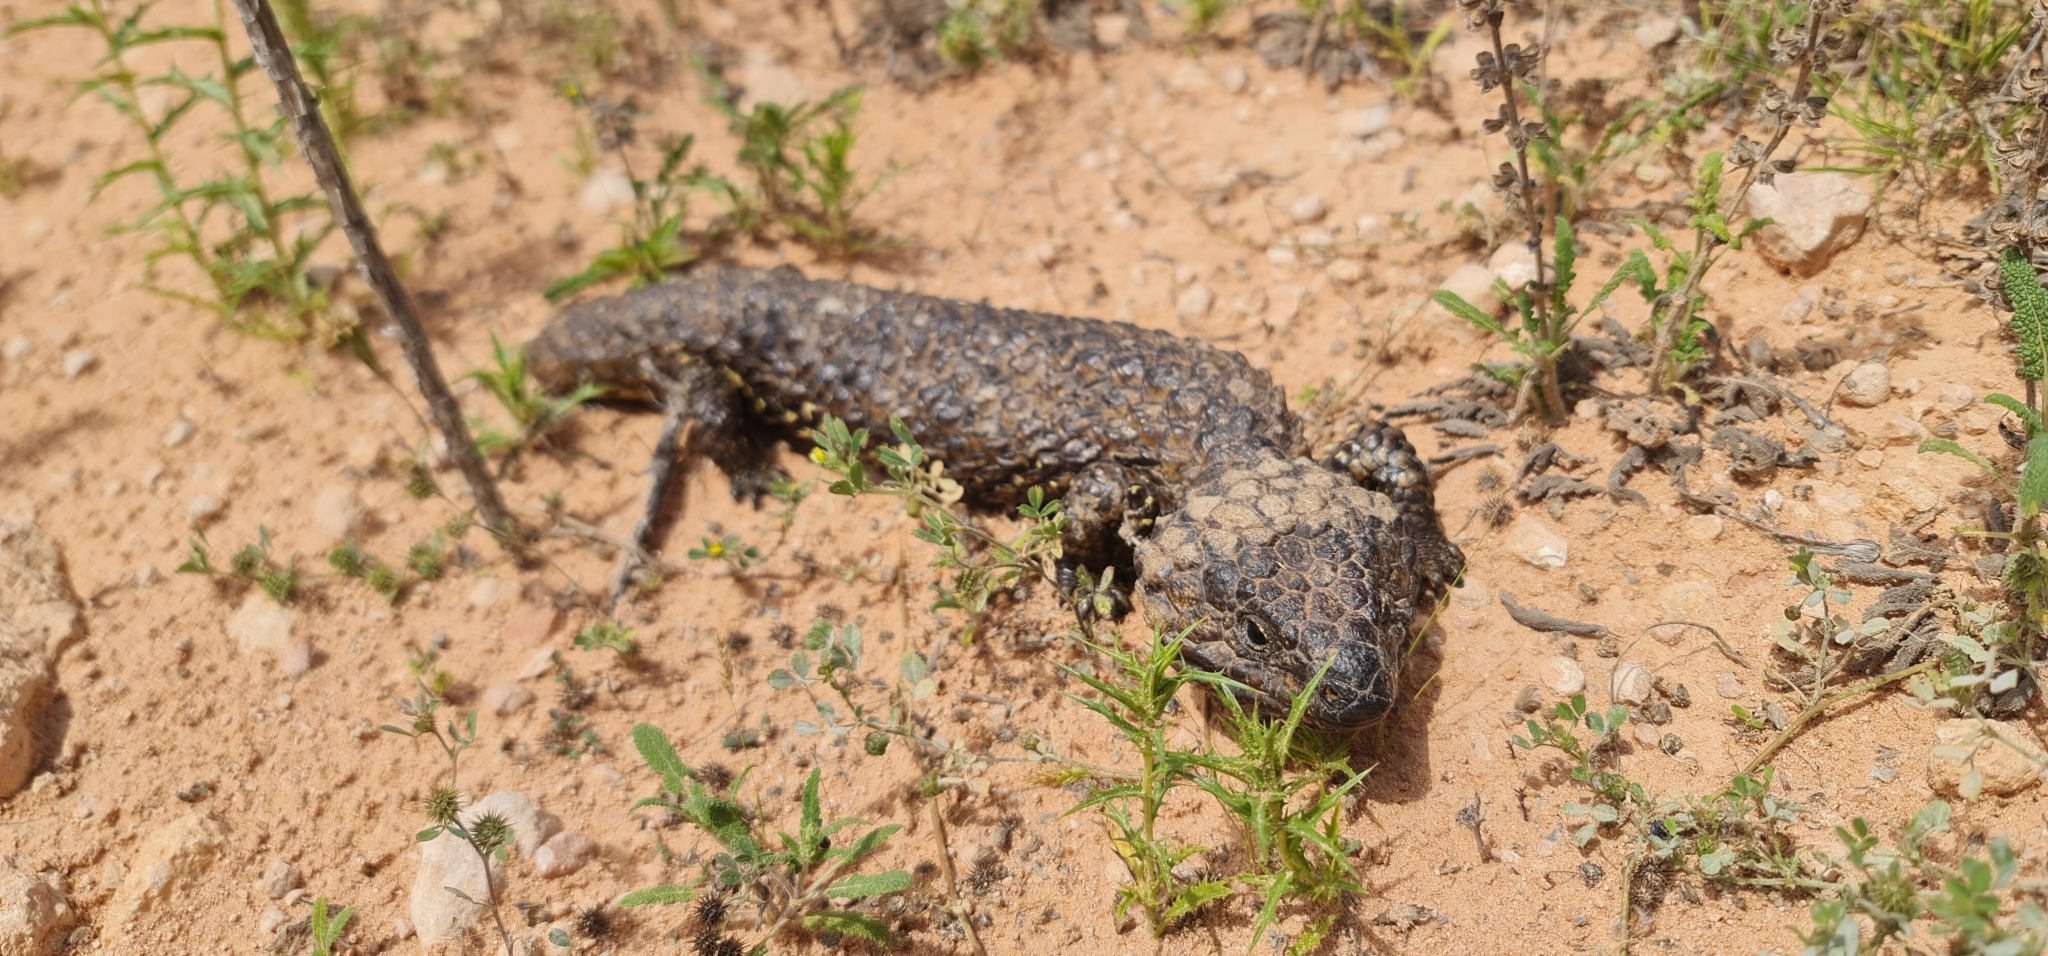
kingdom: Animalia
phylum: Chordata
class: Squamata
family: Scincidae
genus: Tiliqua
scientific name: Tiliqua rugosa
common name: Pinecone lizard
